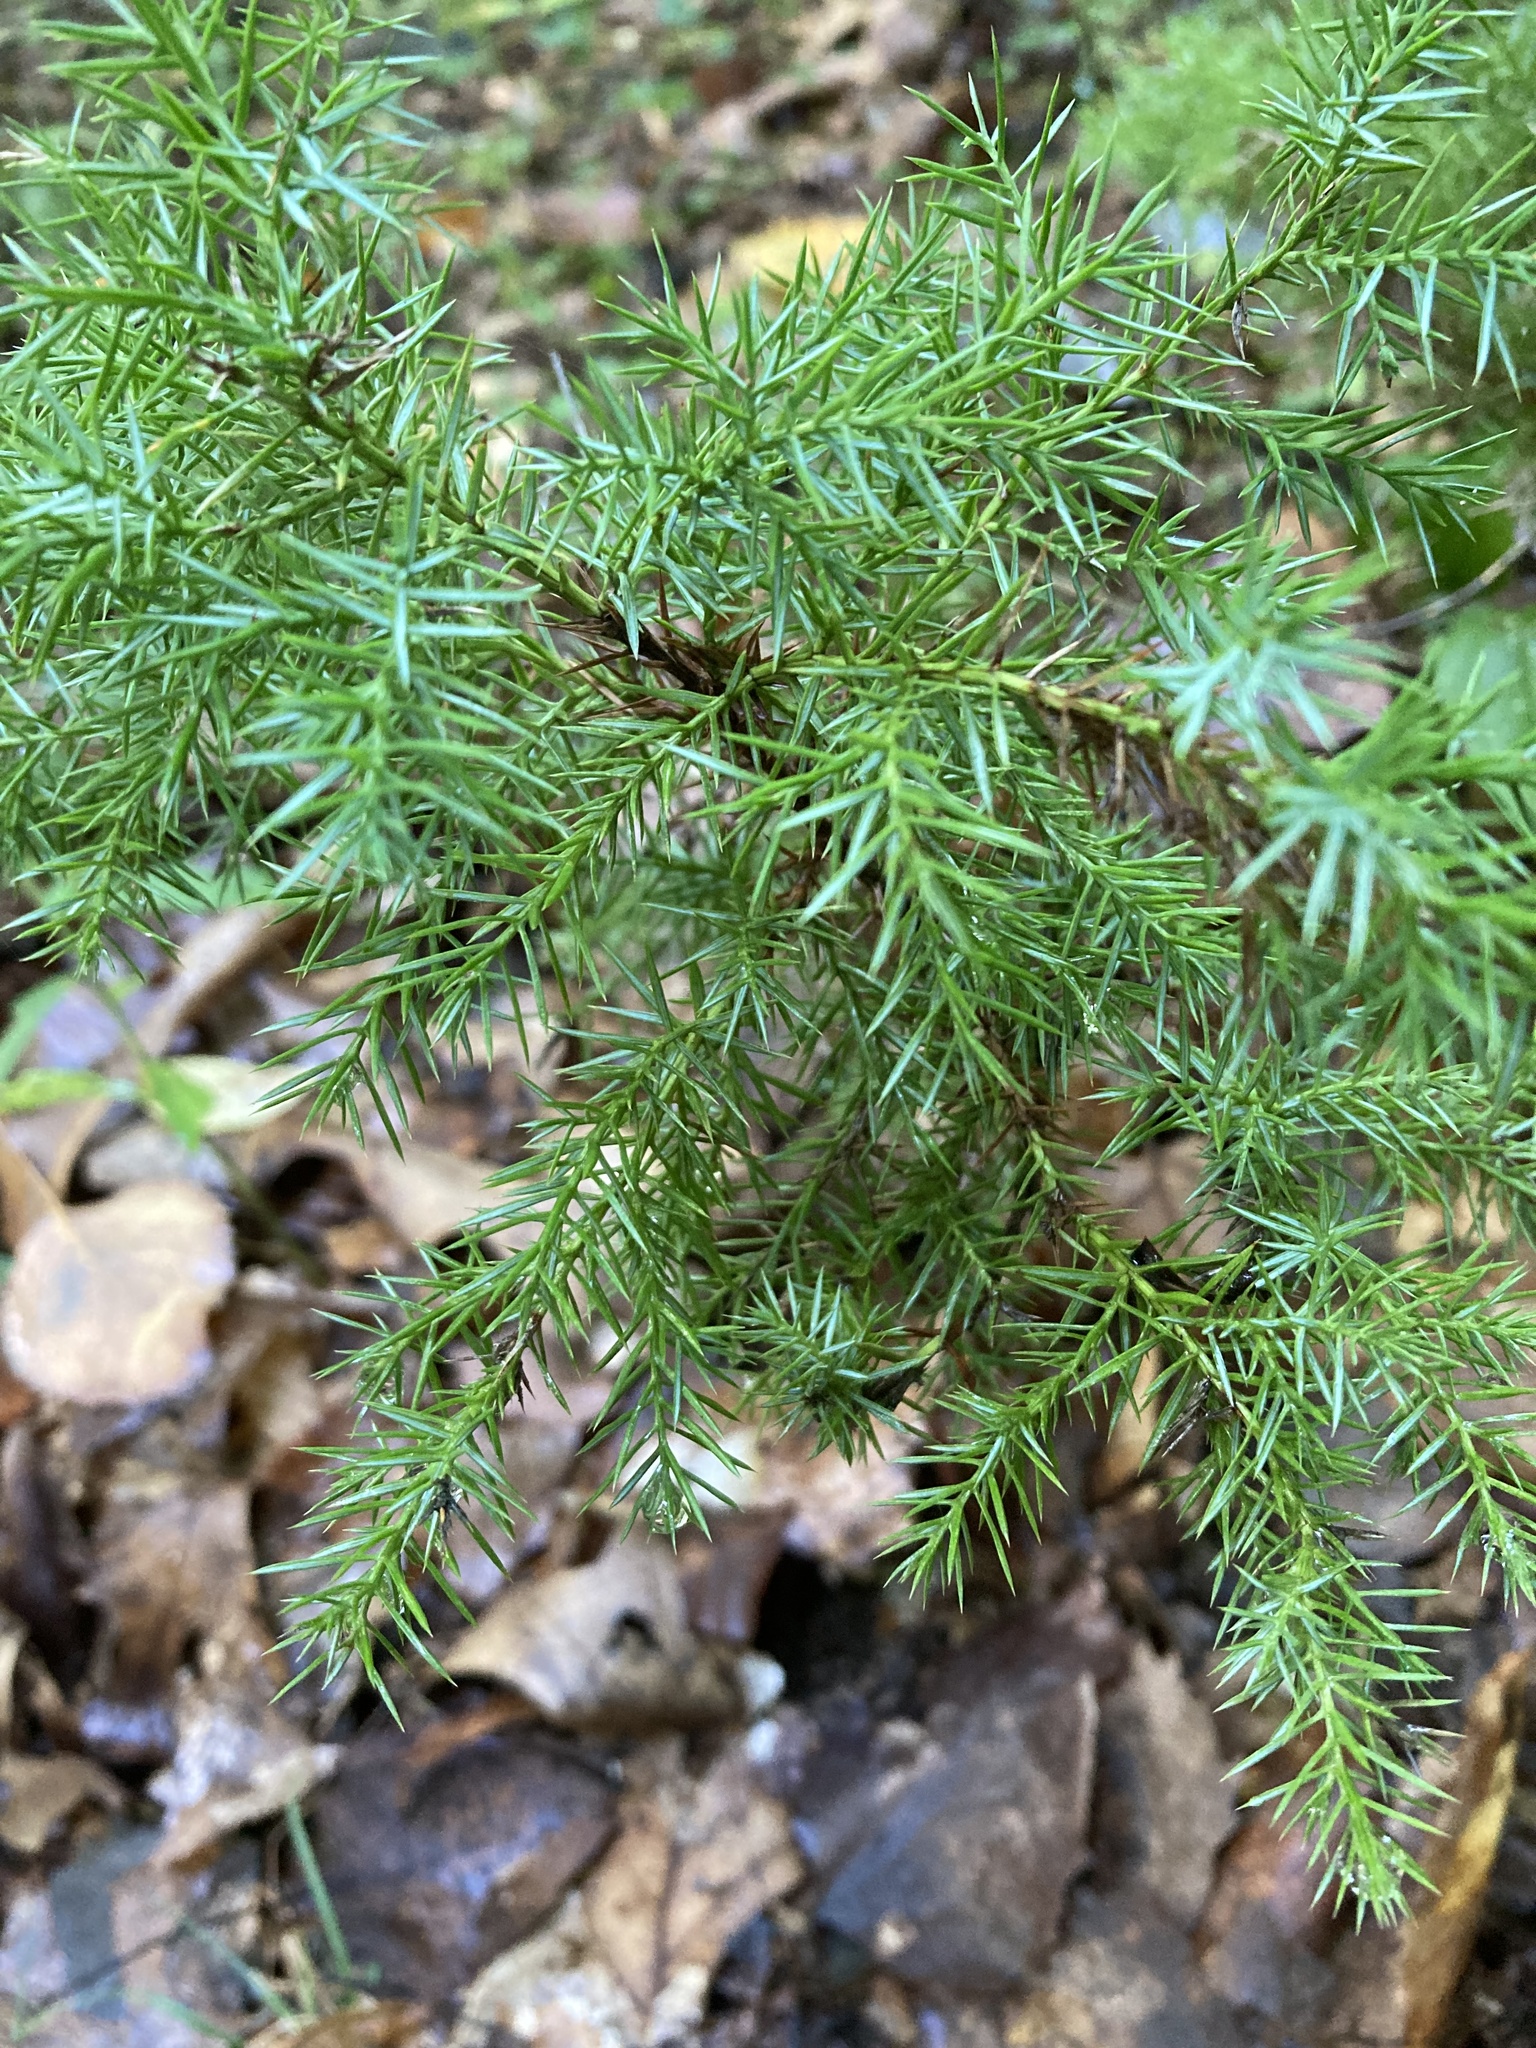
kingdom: Plantae
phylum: Tracheophyta
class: Pinopsida
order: Pinales
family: Cupressaceae
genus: Juniperus
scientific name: Juniperus virginiana
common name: Red juniper
